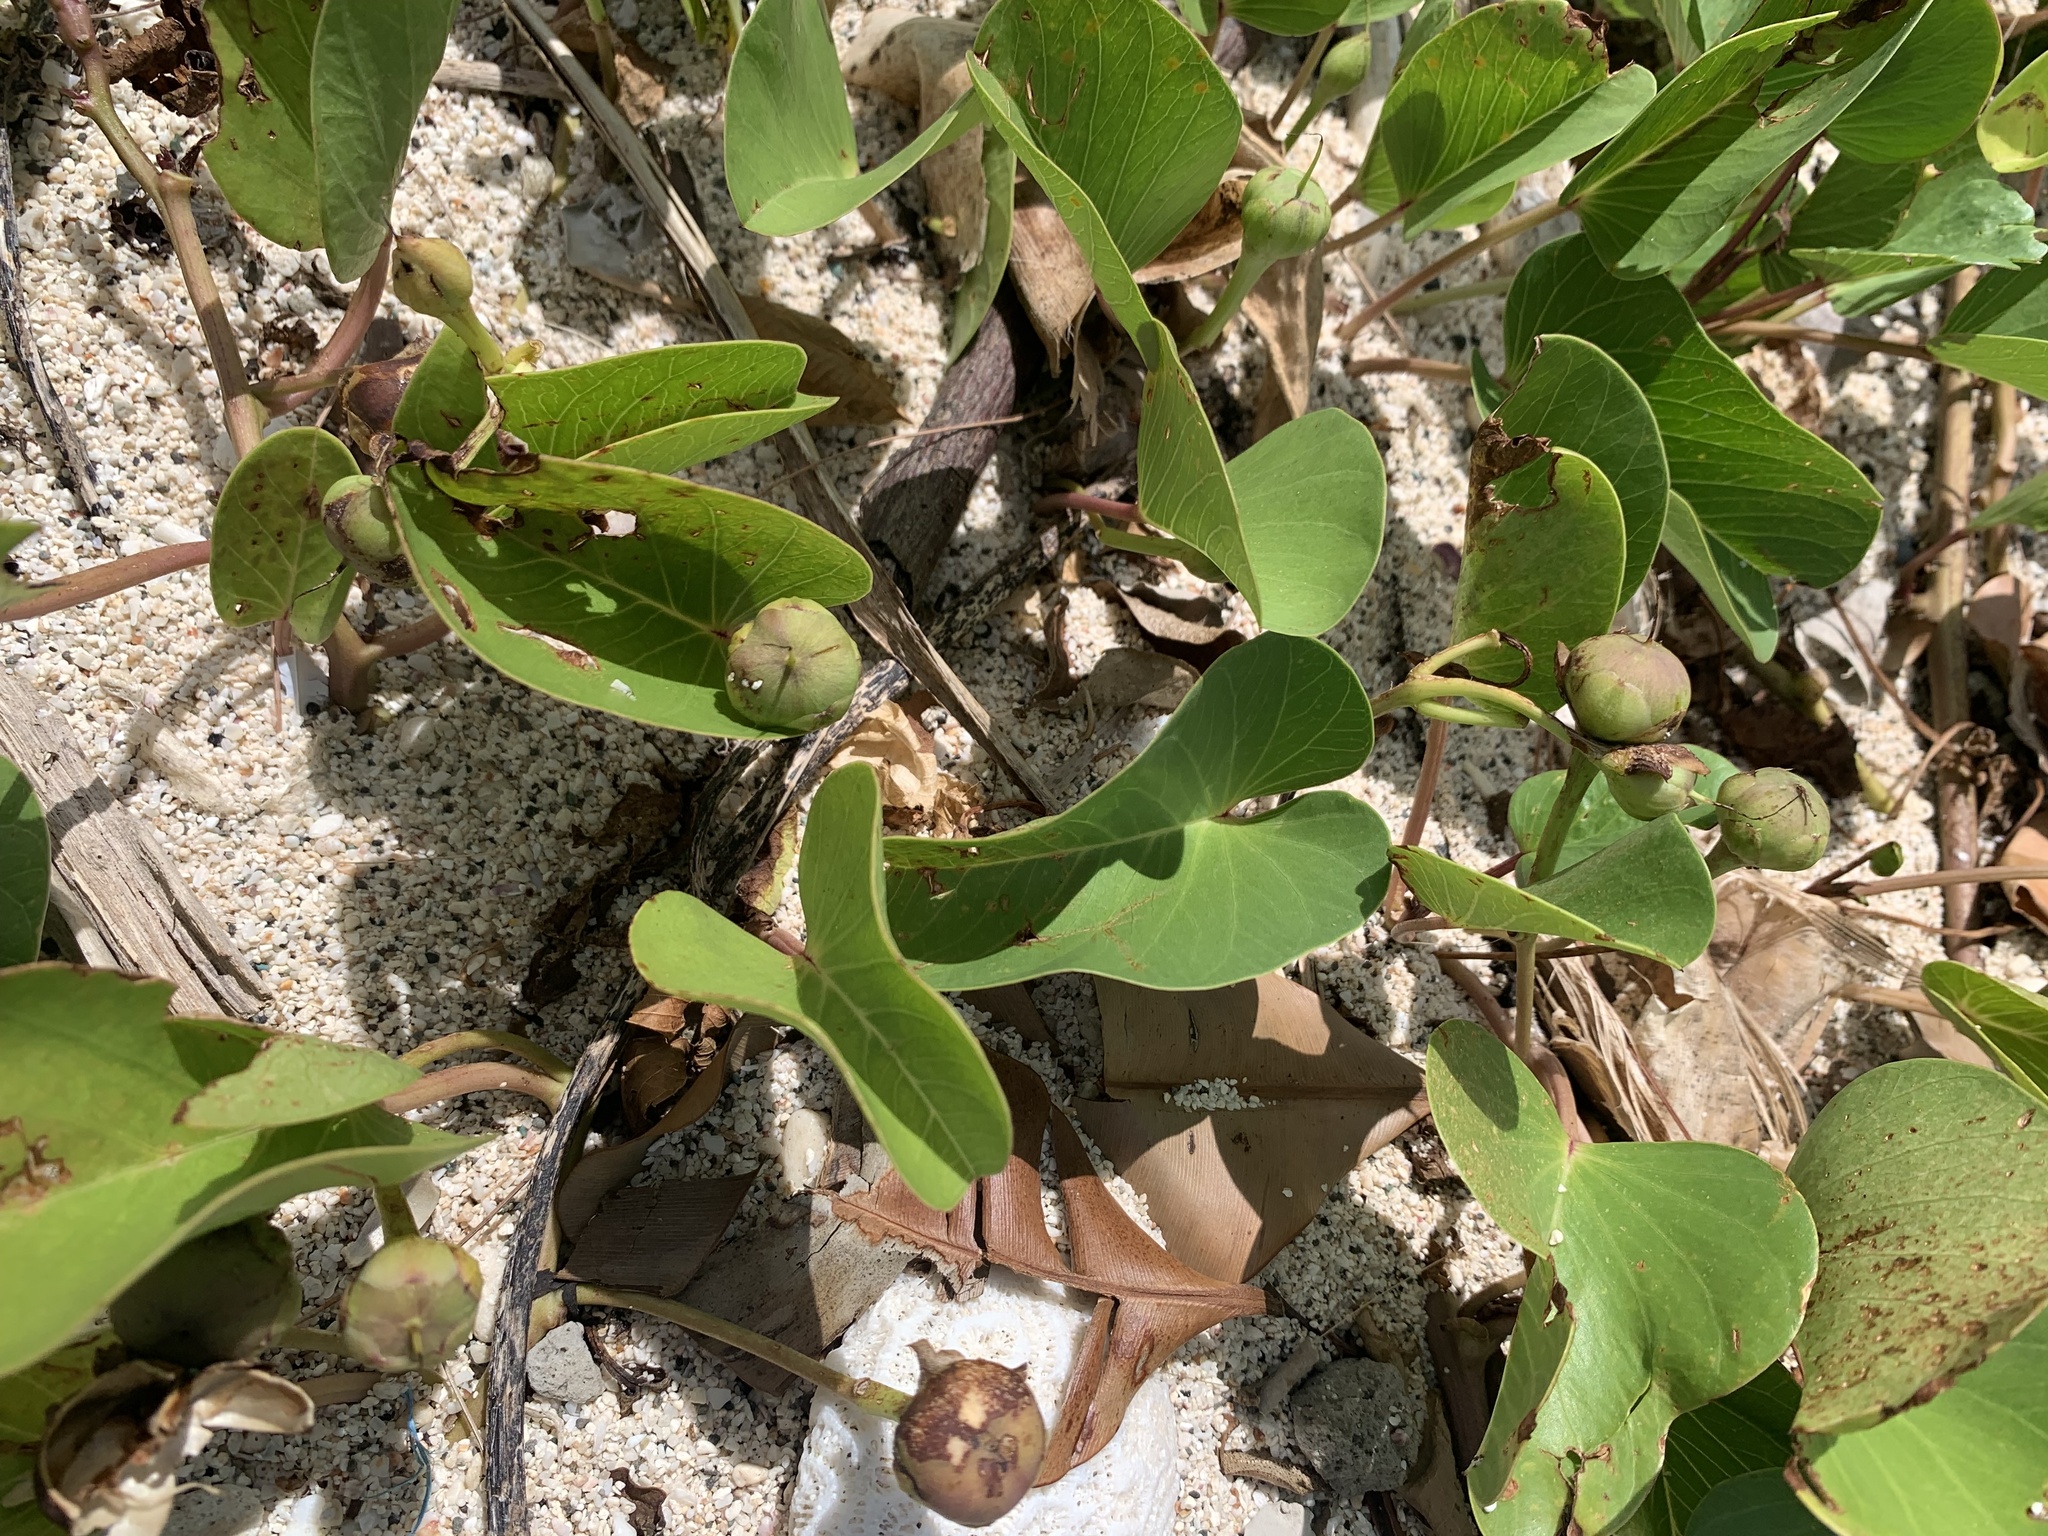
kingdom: Plantae
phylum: Tracheophyta
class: Magnoliopsida
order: Solanales
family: Convolvulaceae
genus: Ipomoea
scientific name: Ipomoea pes-caprae
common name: Beach morning glory
